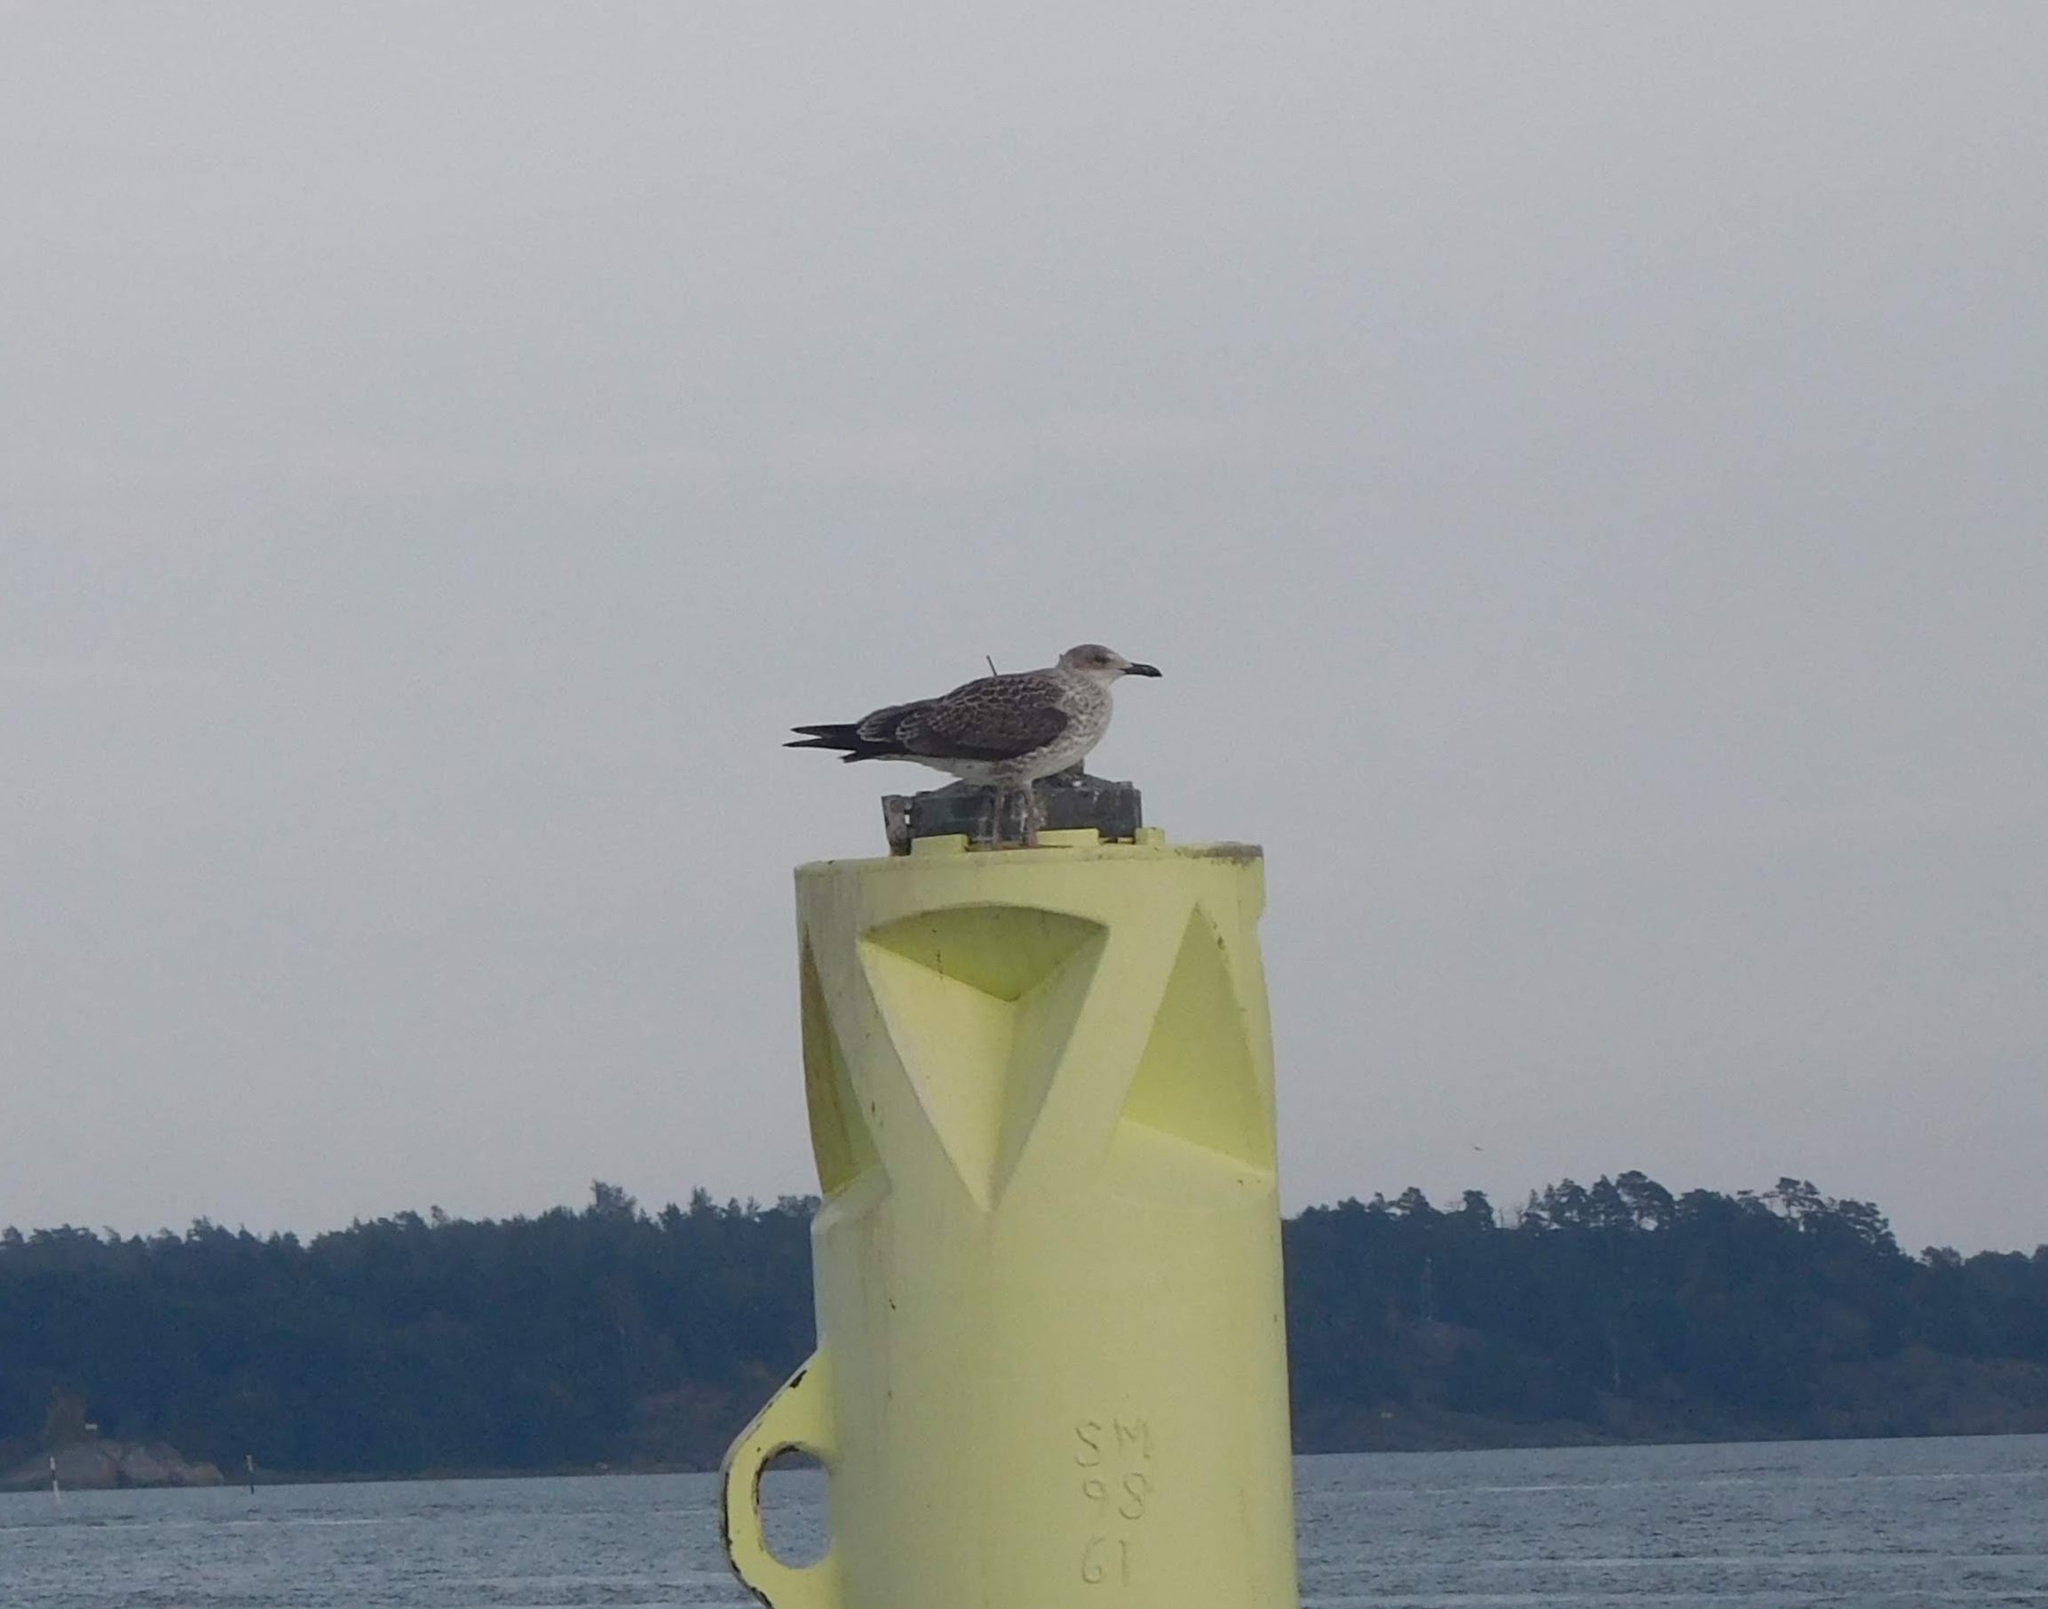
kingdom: Animalia
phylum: Chordata
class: Aves
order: Charadriiformes
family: Laridae
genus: Larus
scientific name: Larus fuscus
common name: Lesser black-backed gull
